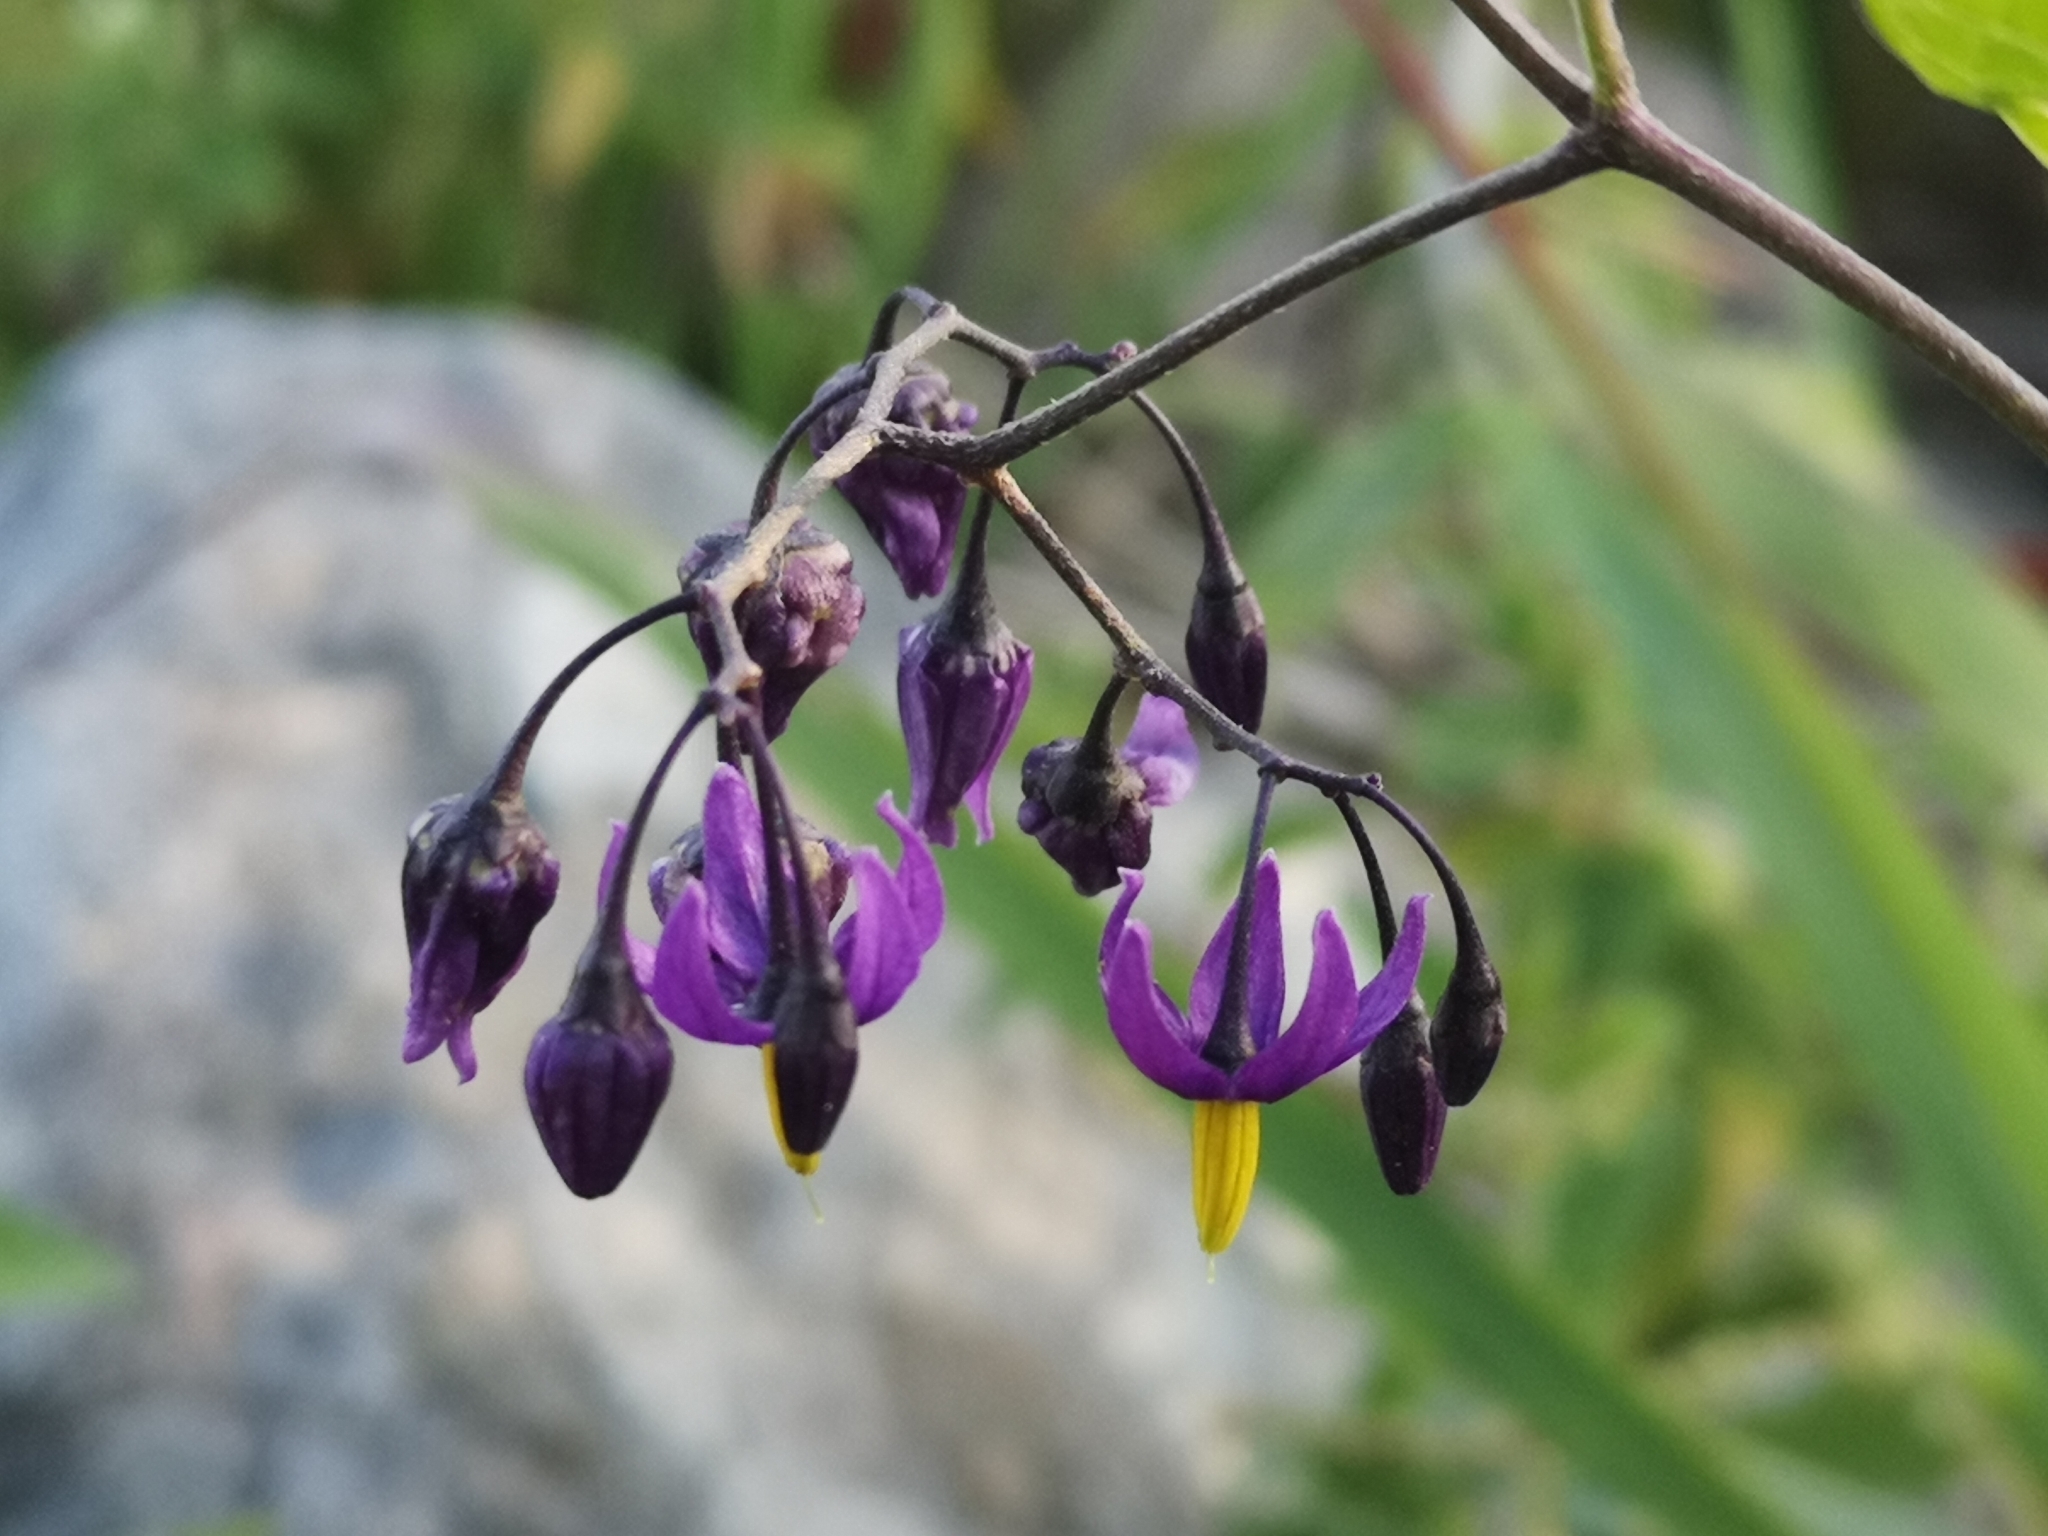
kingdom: Plantae
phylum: Tracheophyta
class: Magnoliopsida
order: Solanales
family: Solanaceae
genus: Solanum
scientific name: Solanum dulcamara
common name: Climbing nightshade
